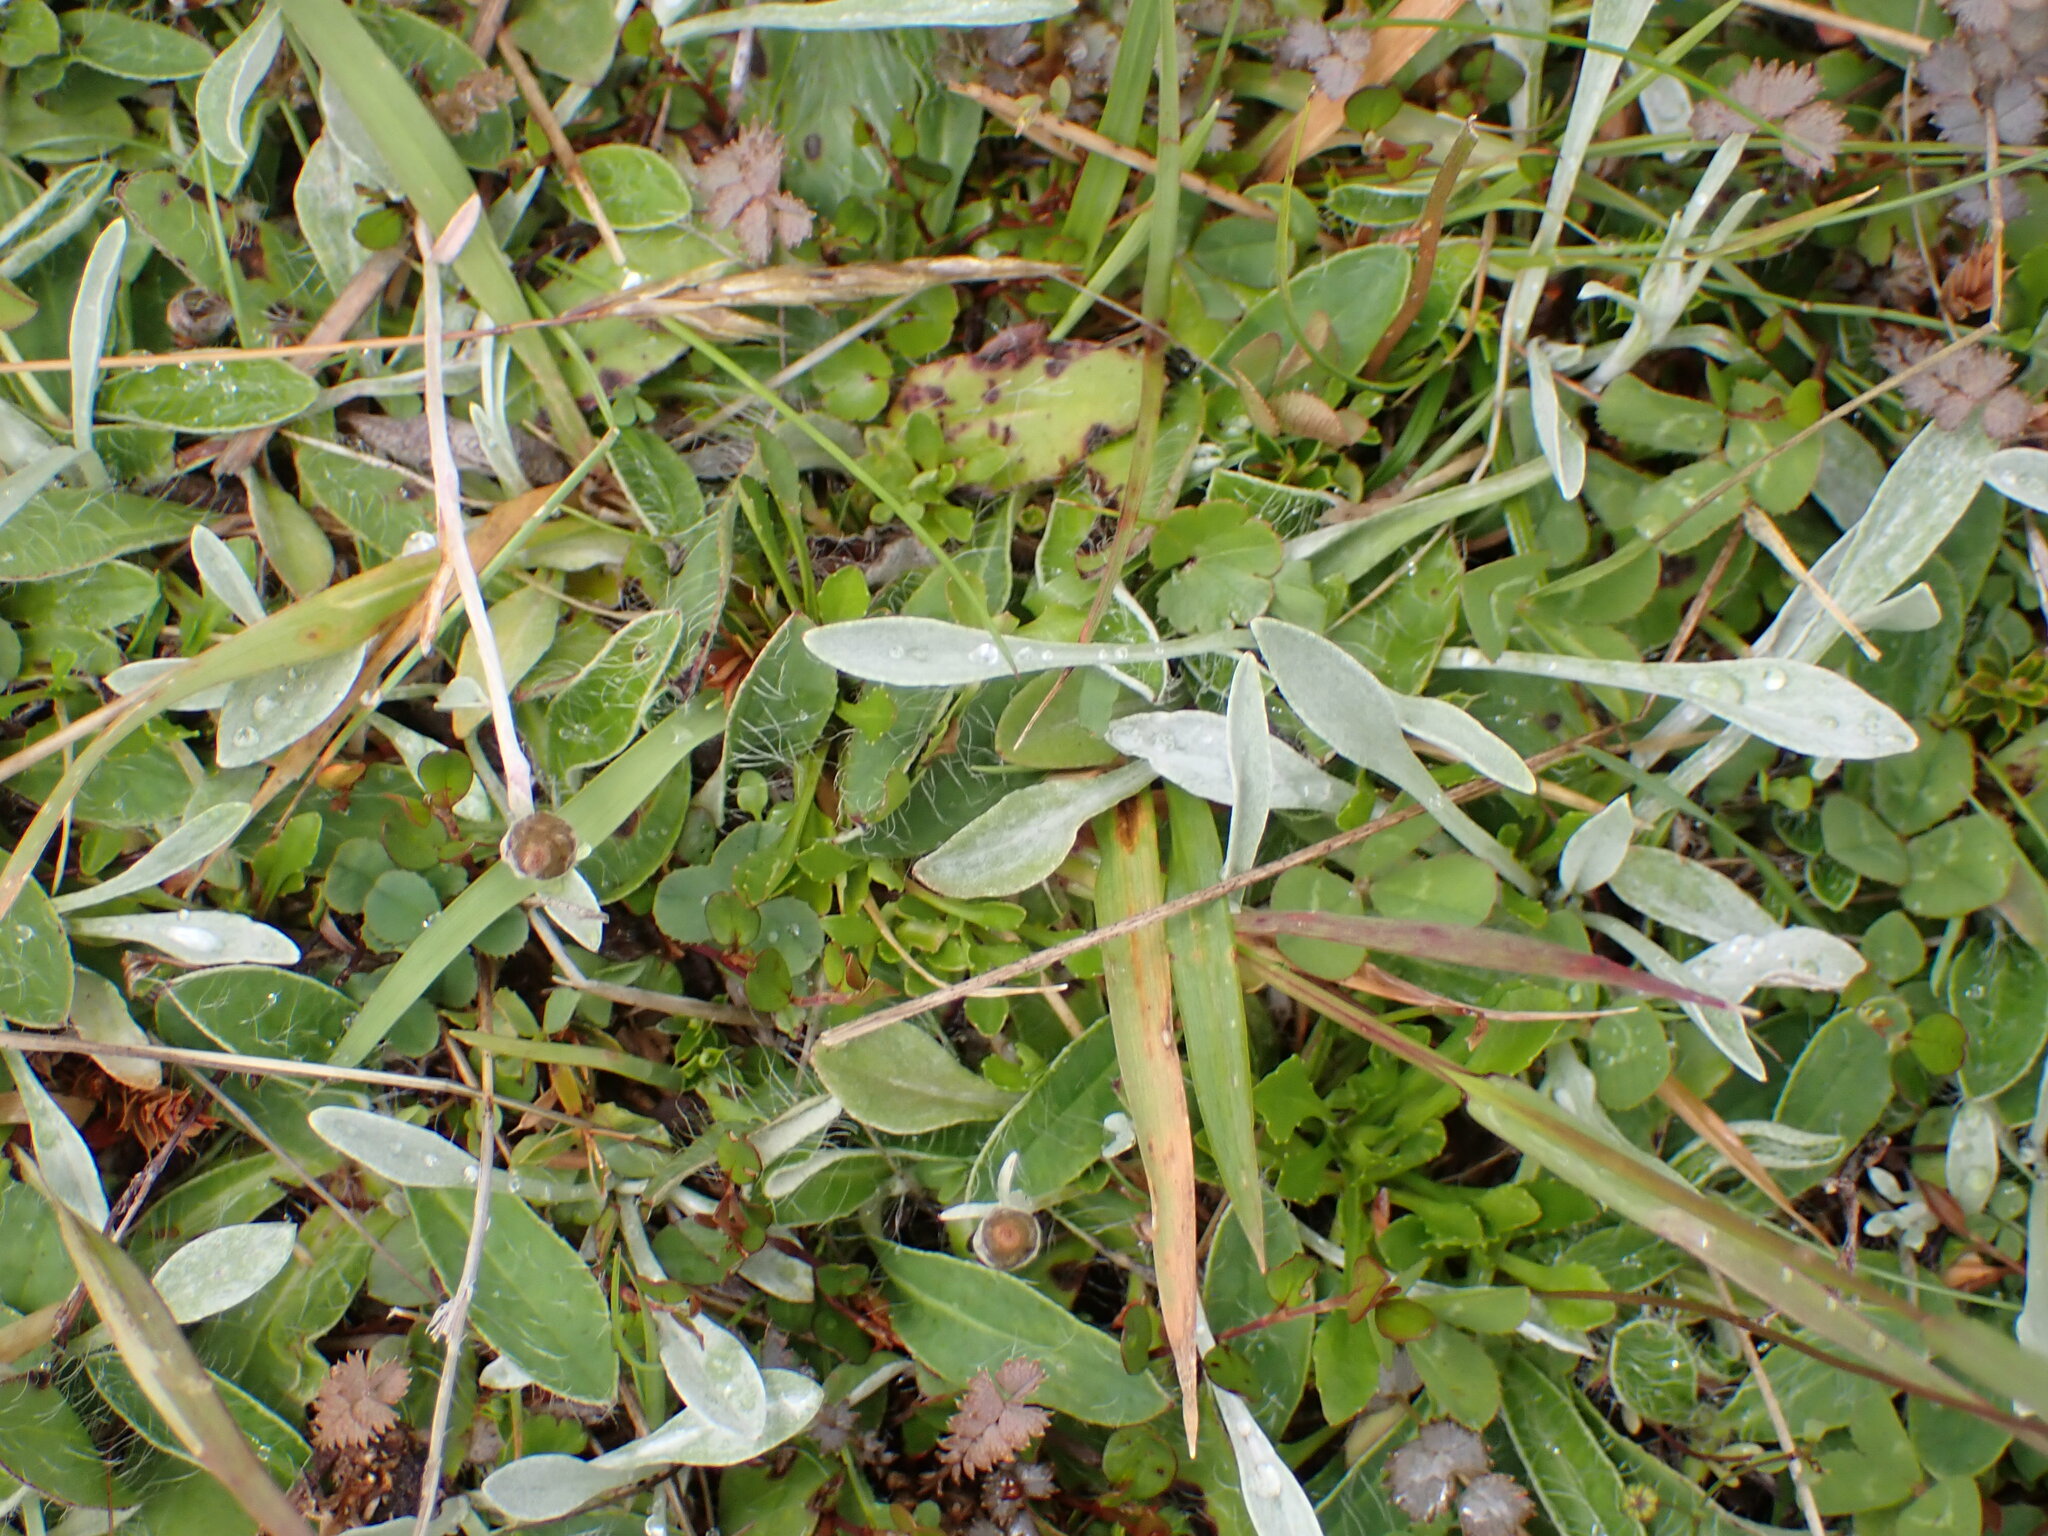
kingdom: Plantae
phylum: Tracheophyta
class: Magnoliopsida
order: Asterales
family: Asteraceae
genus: Euchiton
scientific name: Euchiton audax
